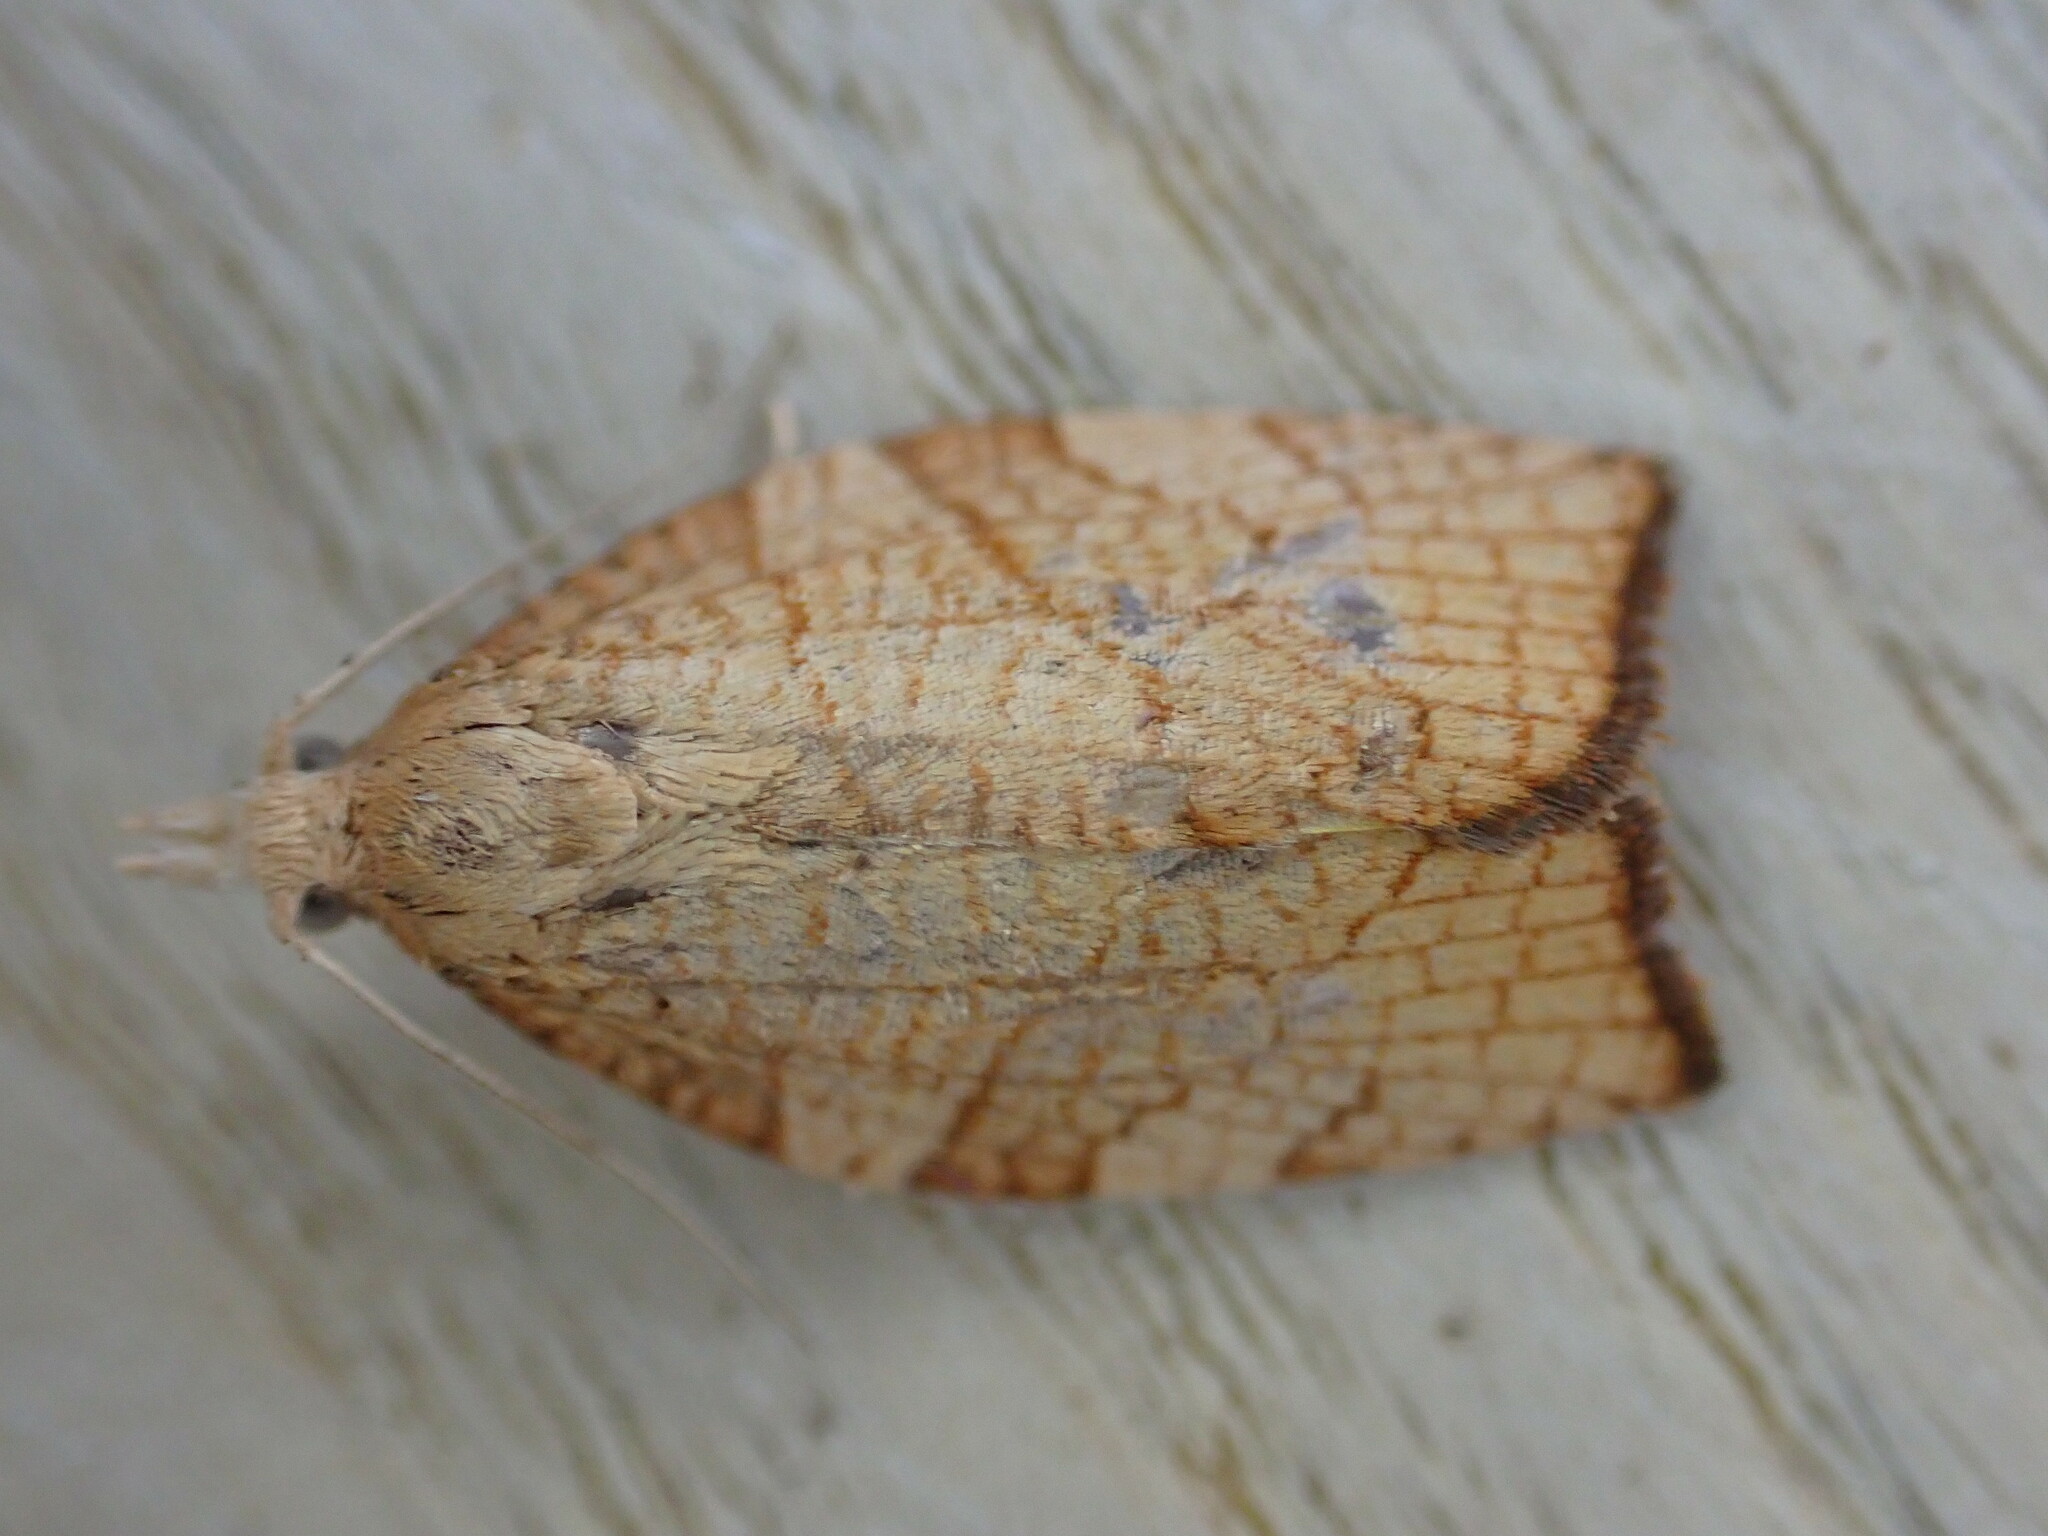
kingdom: Animalia
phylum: Arthropoda
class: Insecta
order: Lepidoptera
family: Tortricidae
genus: Pandemis
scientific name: Pandemis corylana
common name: Chequered fruit-tree tortrix
